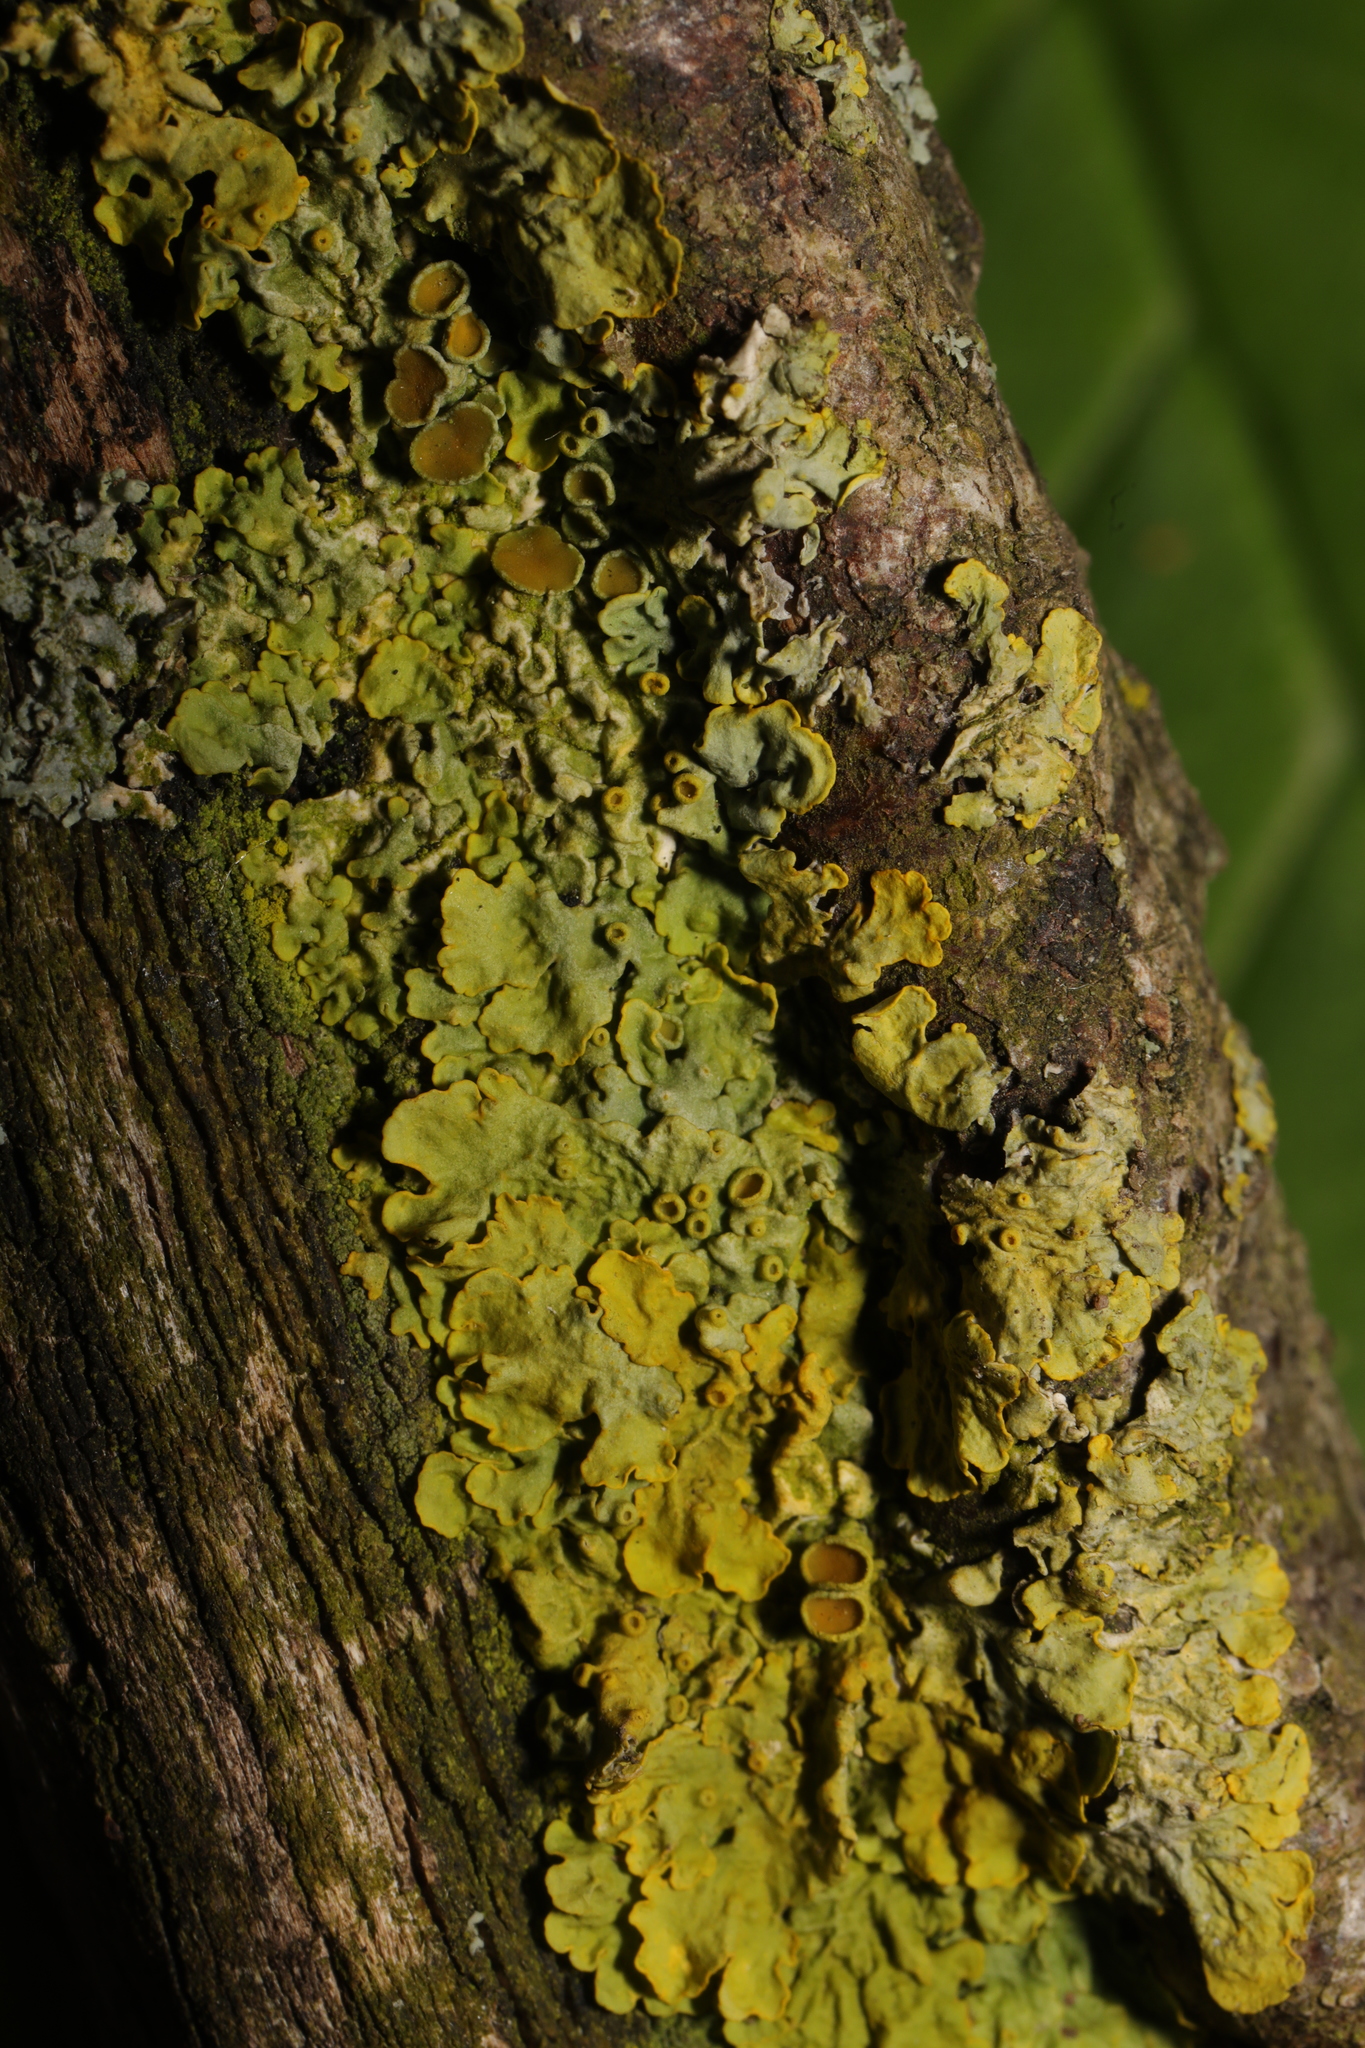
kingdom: Fungi
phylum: Ascomycota
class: Lecanoromycetes
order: Teloschistales
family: Teloschistaceae
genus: Xanthoria
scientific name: Xanthoria parietina
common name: Common orange lichen
